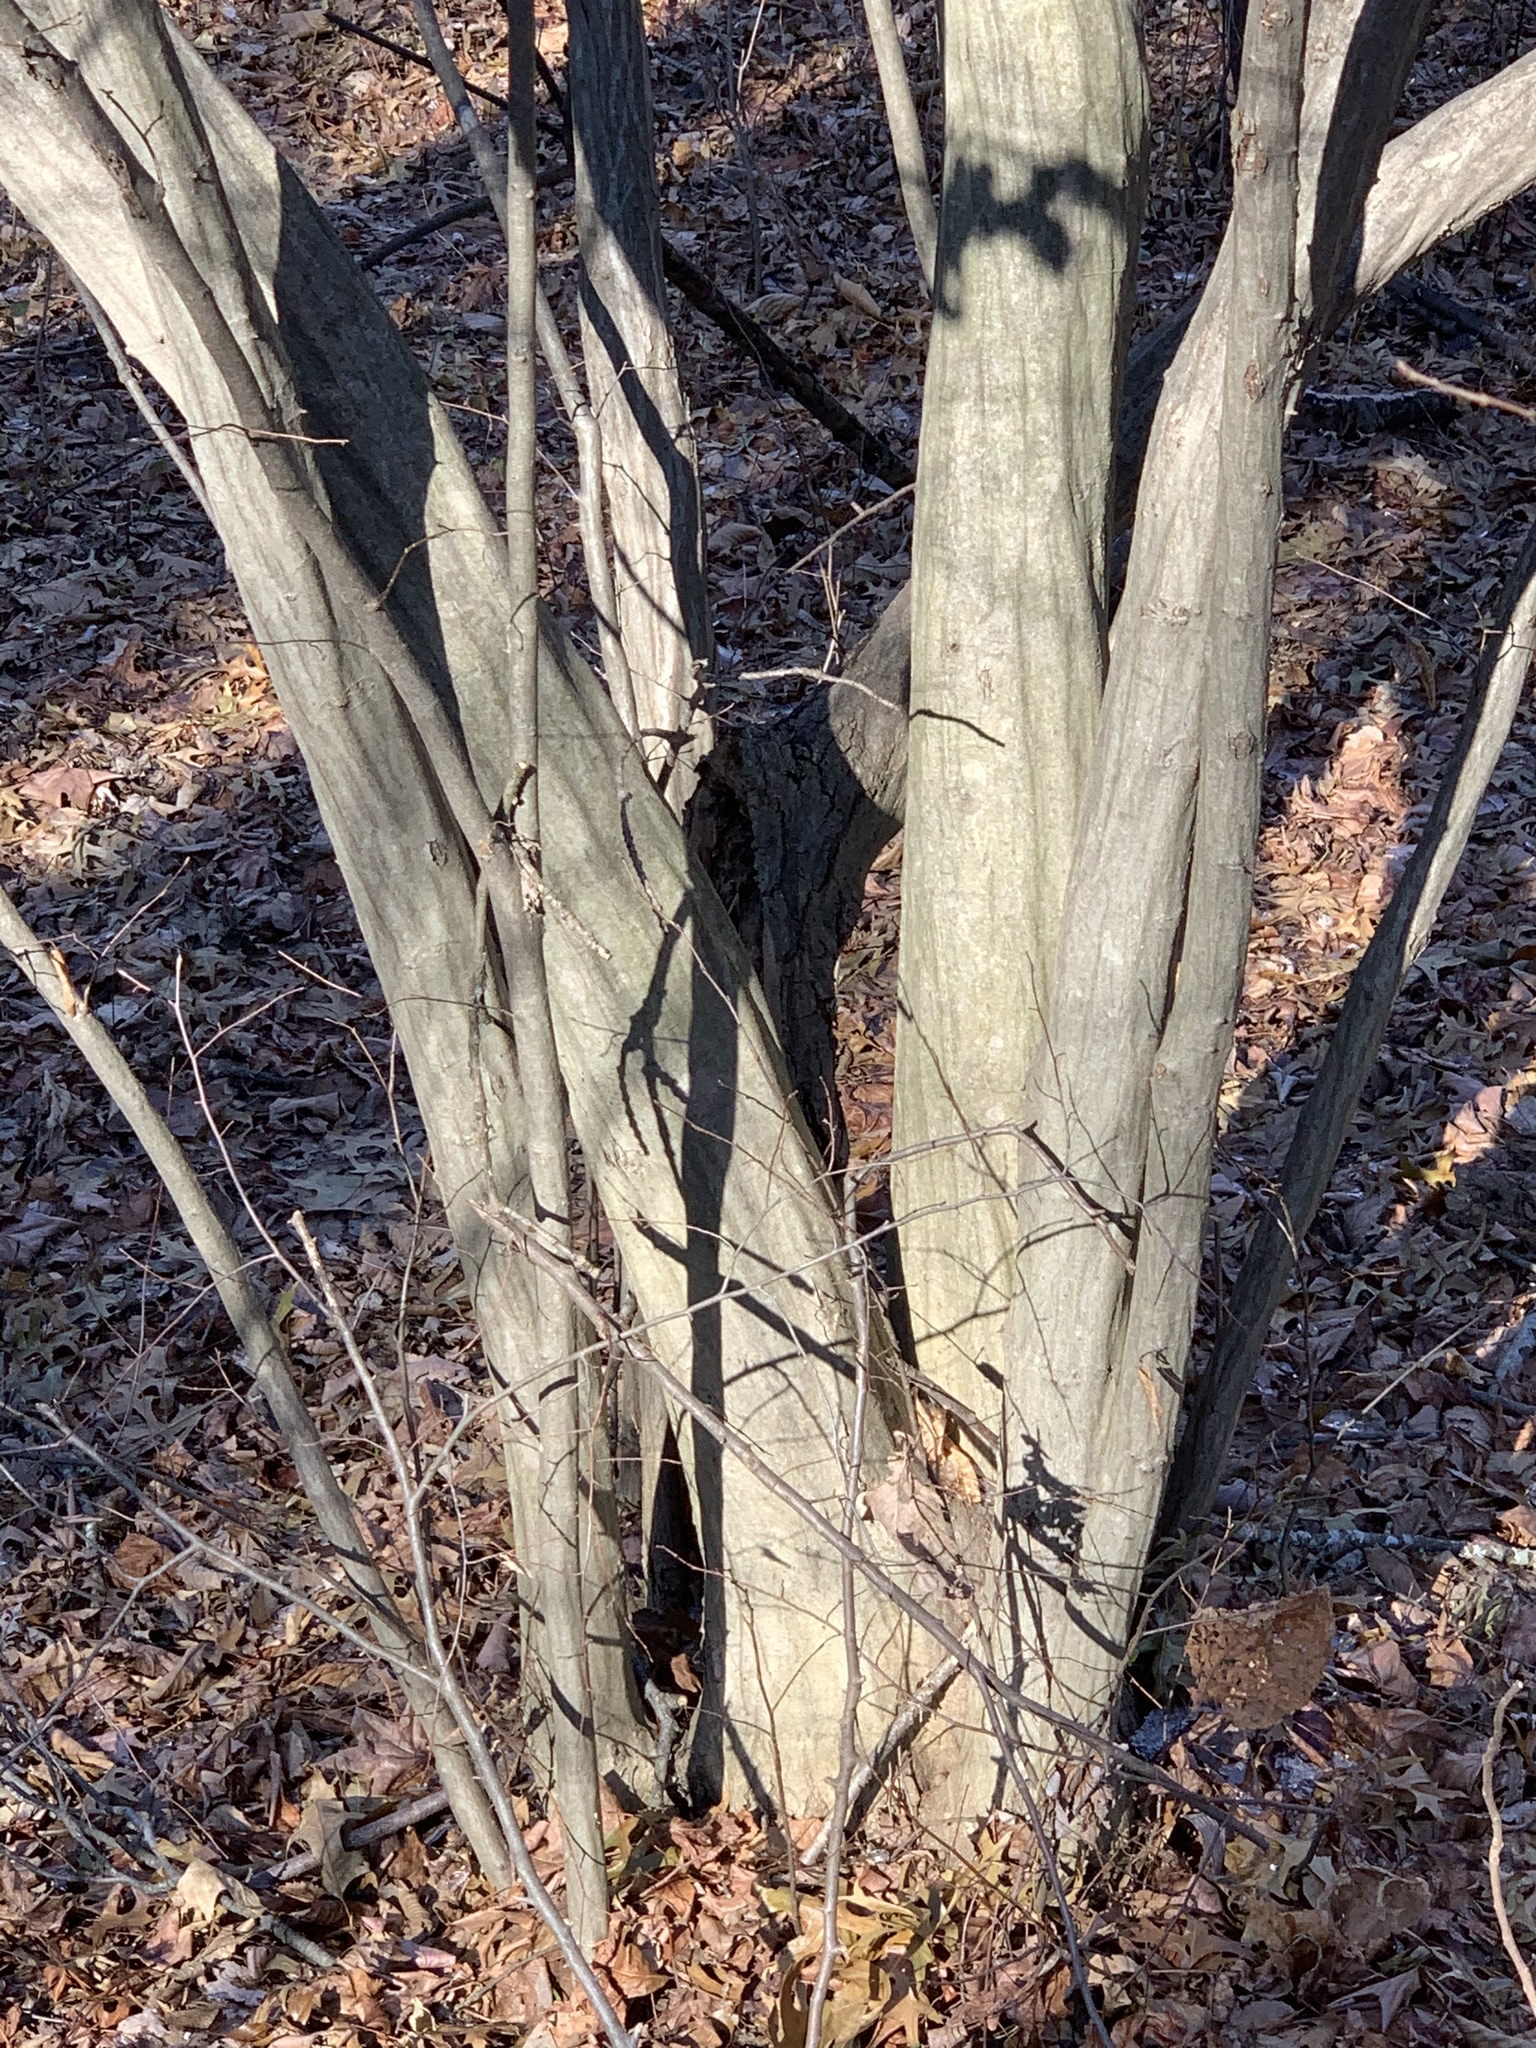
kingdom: Plantae
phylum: Tracheophyta
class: Magnoliopsida
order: Fagales
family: Betulaceae
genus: Carpinus
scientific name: Carpinus caroliniana
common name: American hornbeam
